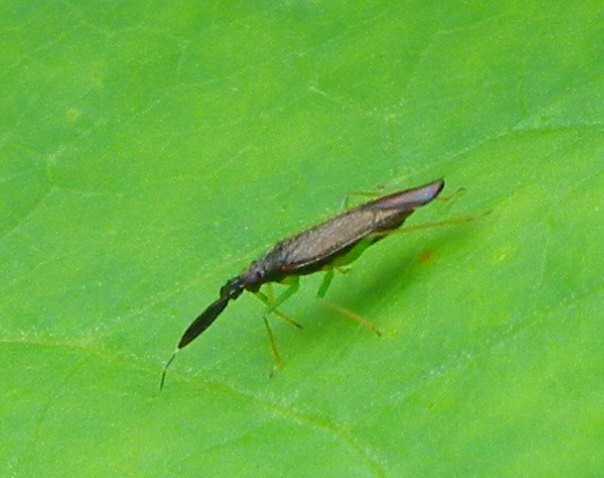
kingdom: Animalia
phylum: Arthropoda
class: Insecta
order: Hemiptera
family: Miridae
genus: Heterotoma
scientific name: Heterotoma planicornis
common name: Plant bug
